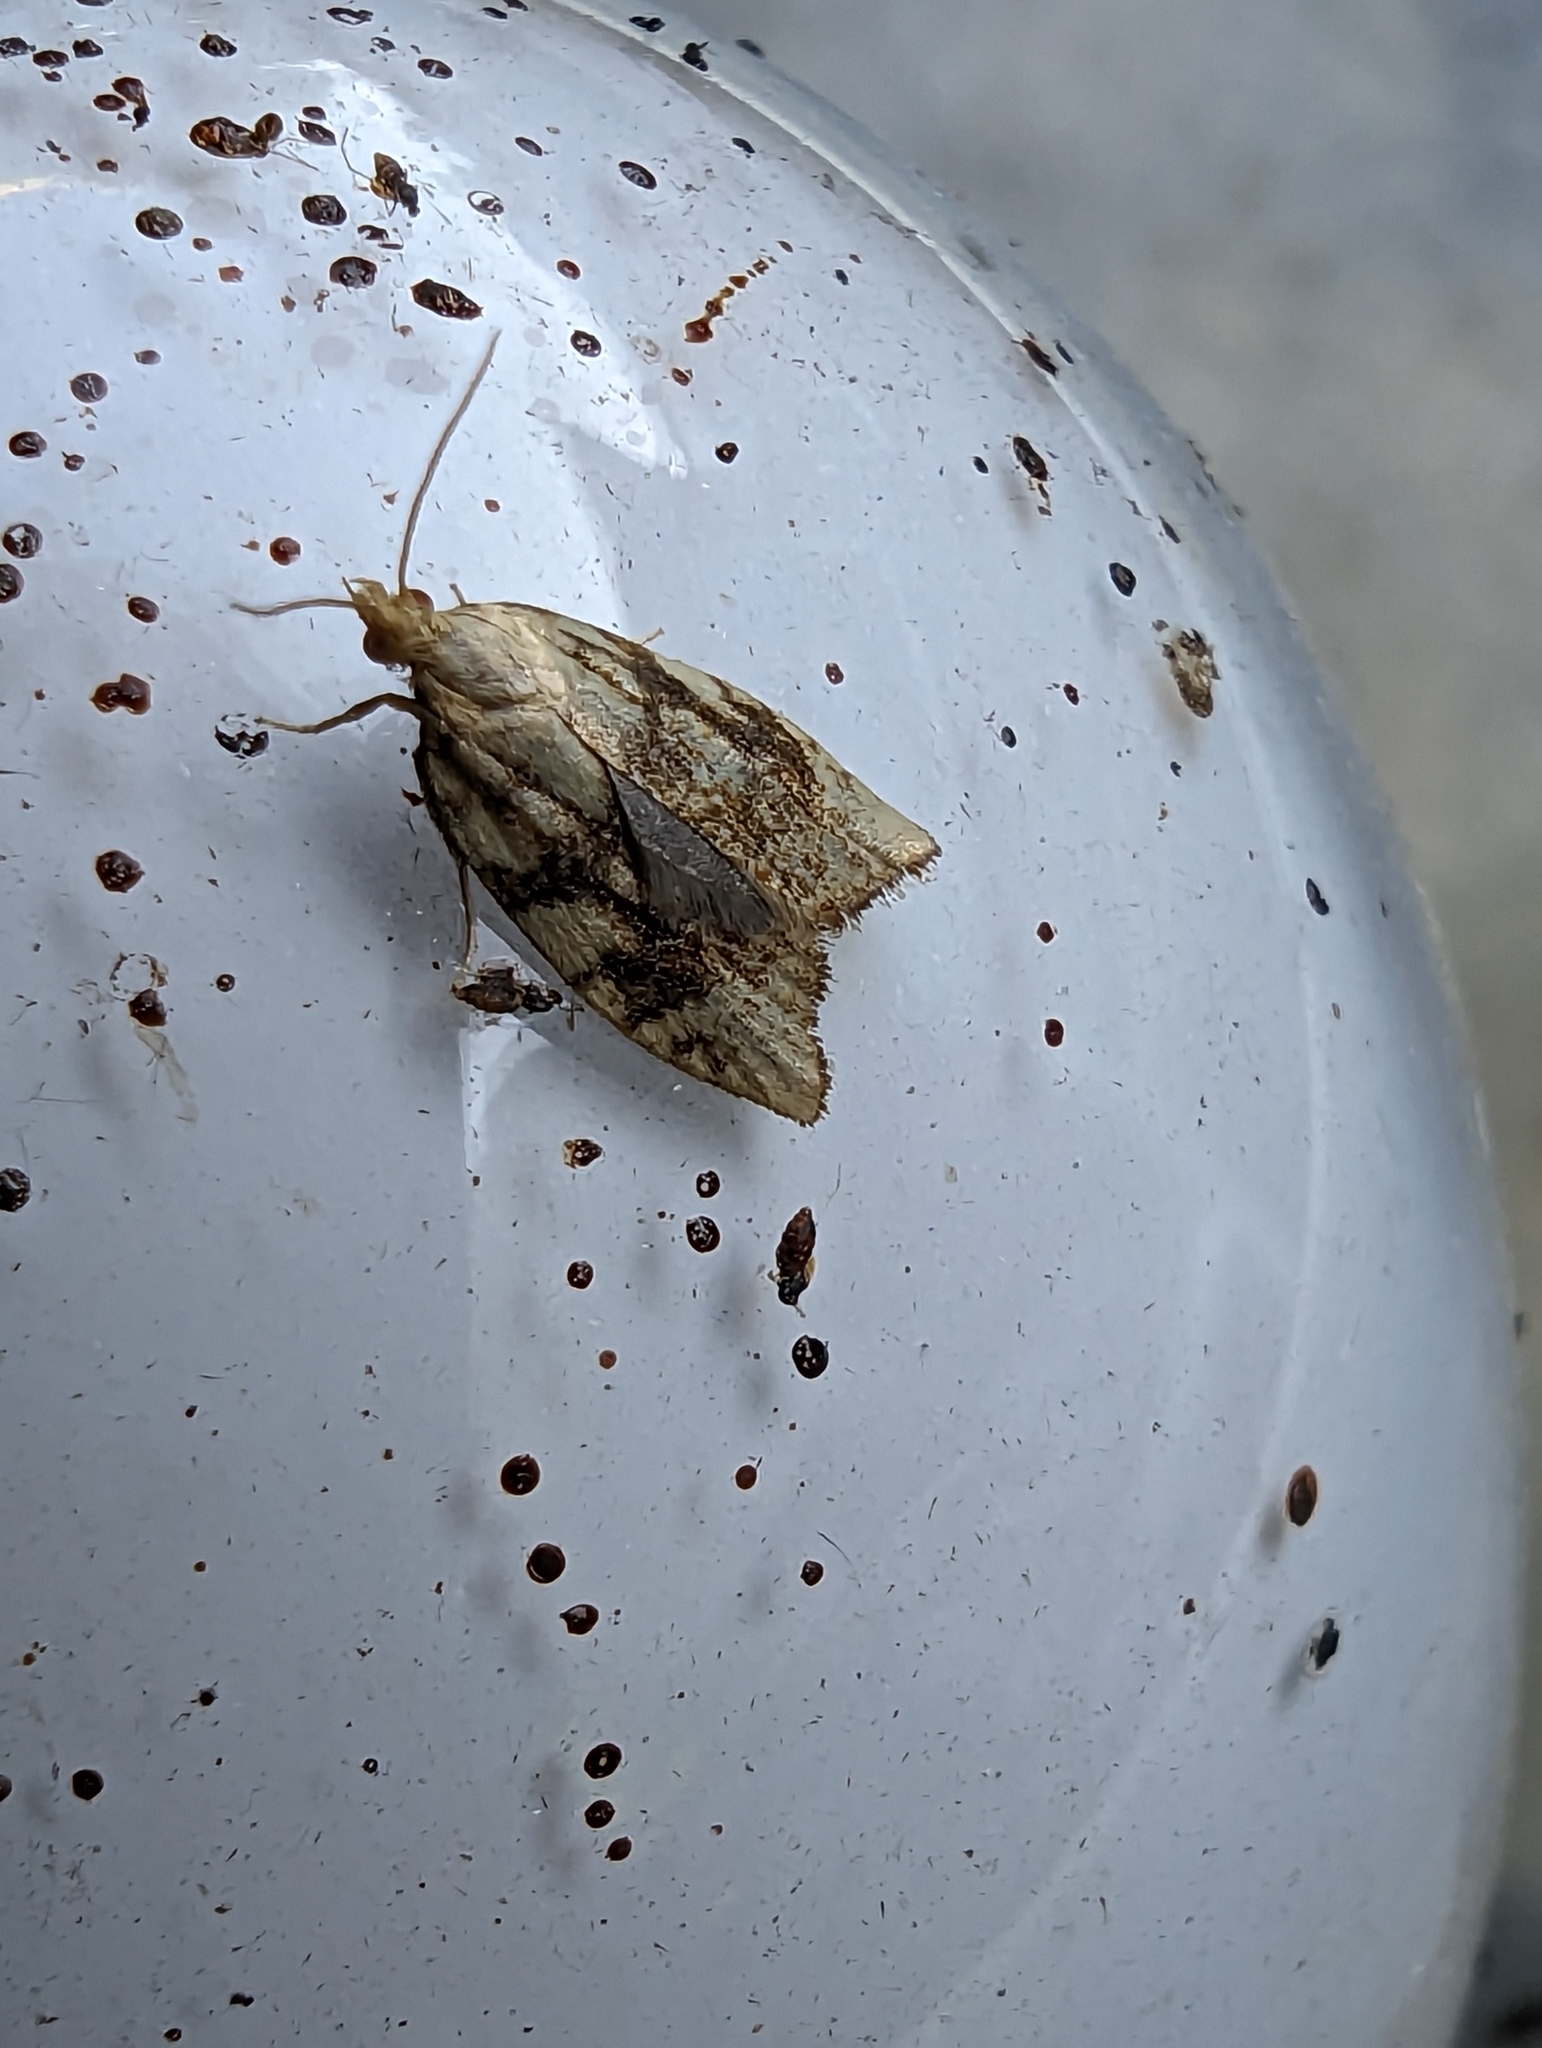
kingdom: Animalia
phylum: Arthropoda
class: Insecta
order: Lepidoptera
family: Tortricidae
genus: Aleimma
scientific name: Aleimma loeflingiana
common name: Yellow oak button
